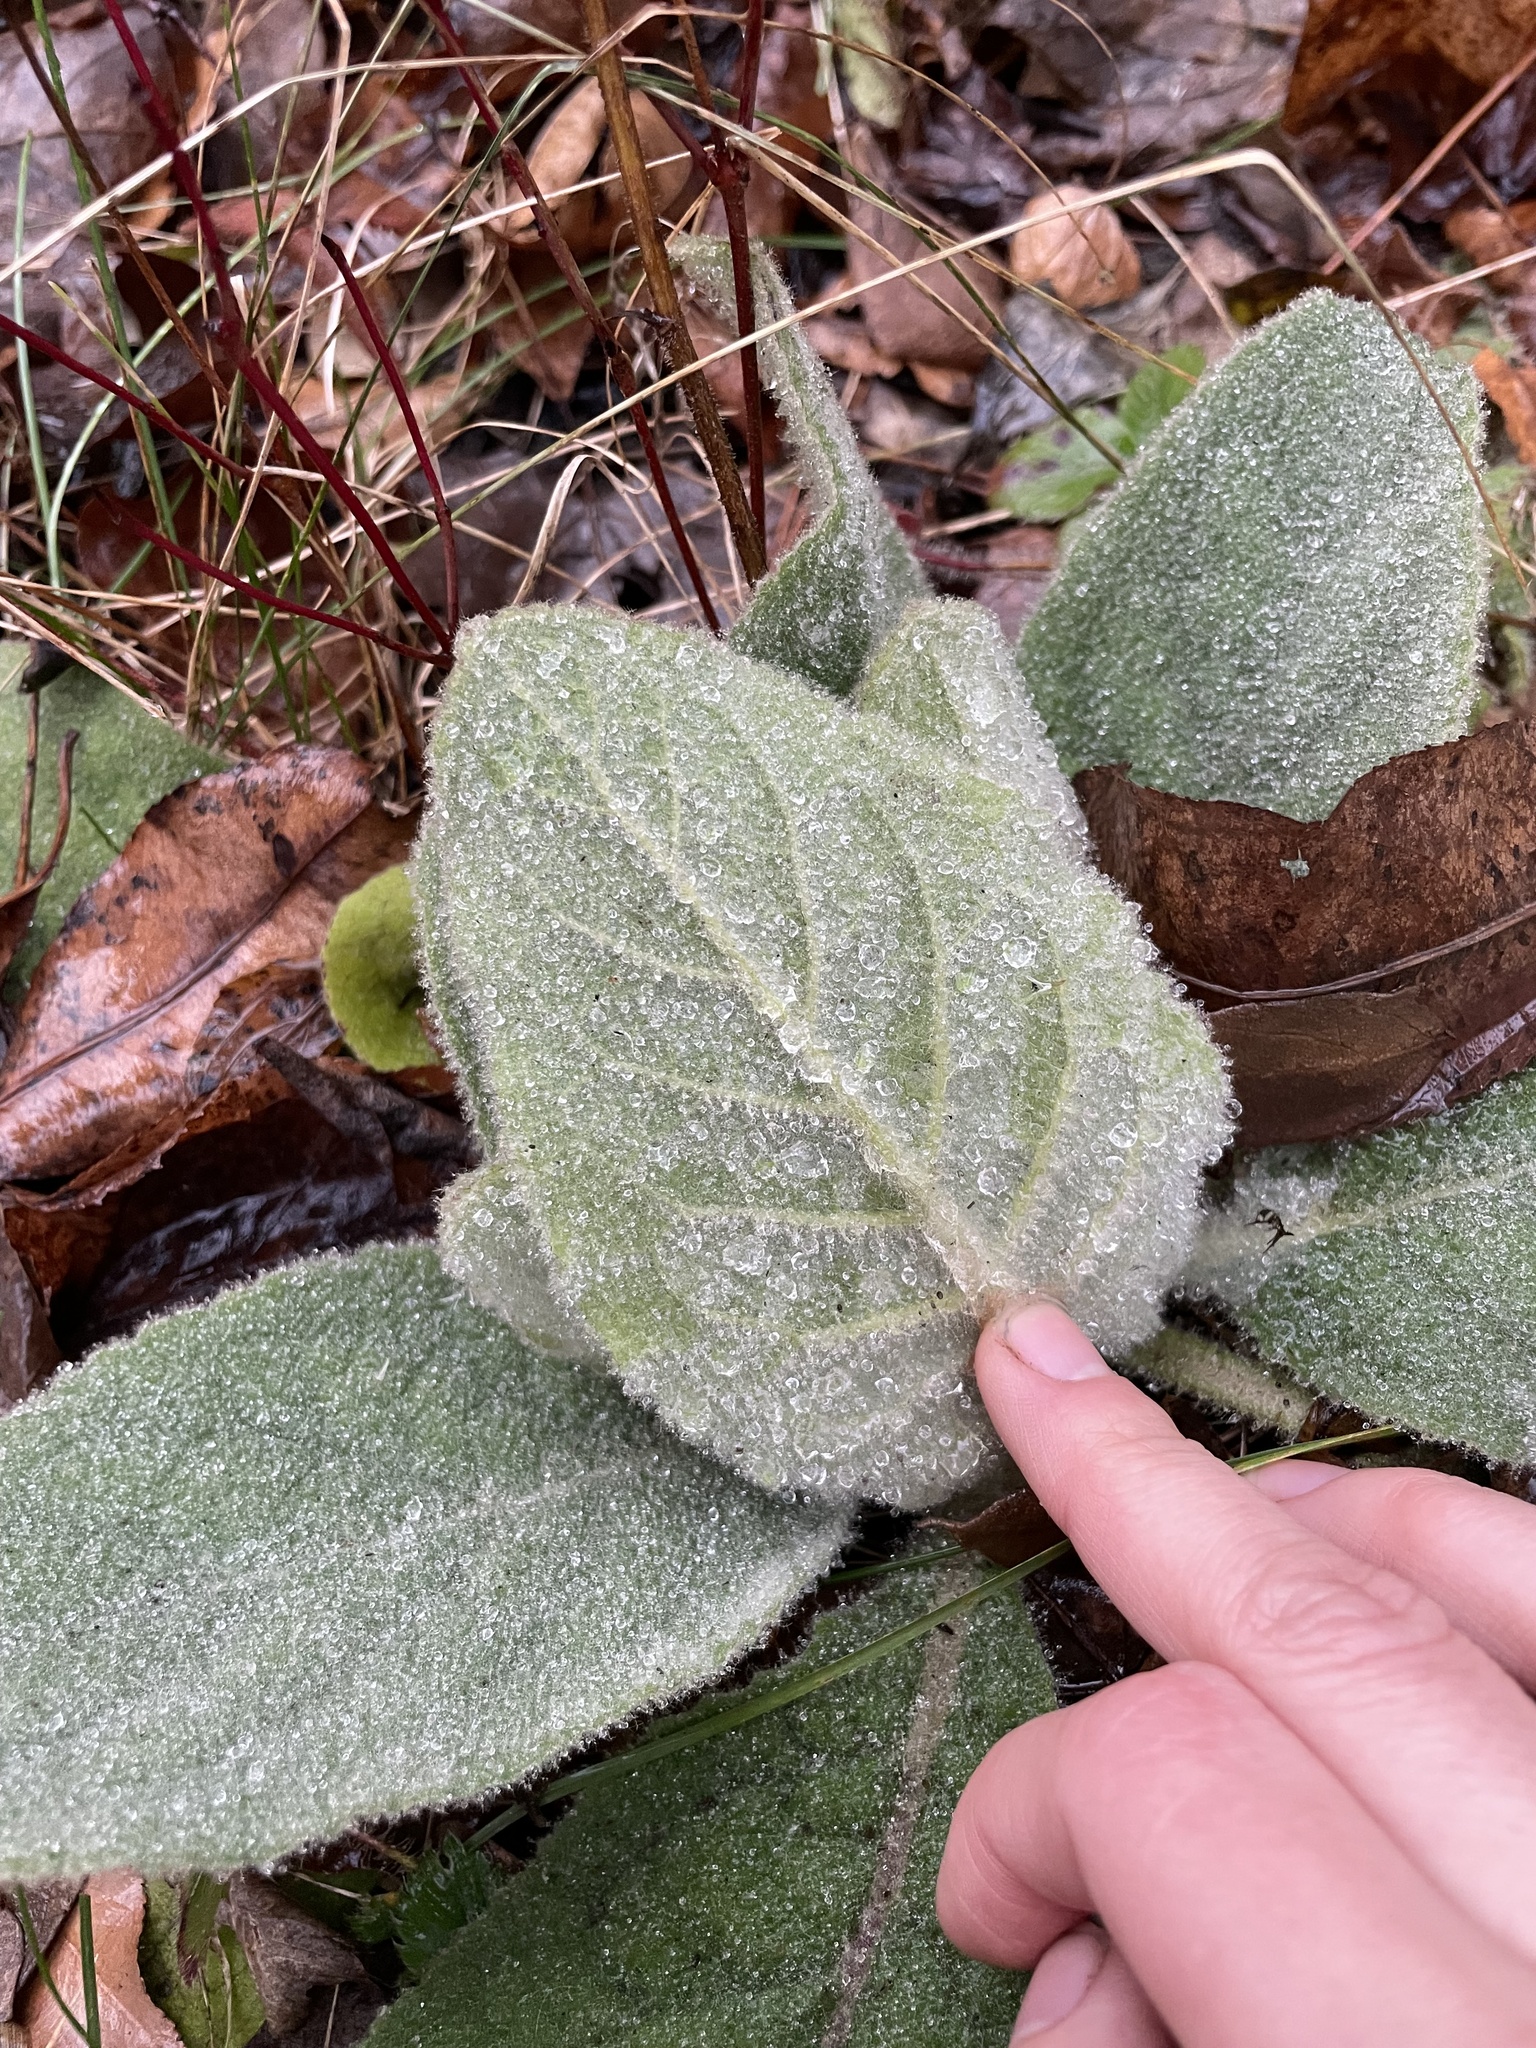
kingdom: Plantae
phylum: Tracheophyta
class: Magnoliopsida
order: Lamiales
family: Scrophulariaceae
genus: Verbascum
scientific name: Verbascum thapsus
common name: Common mullein
